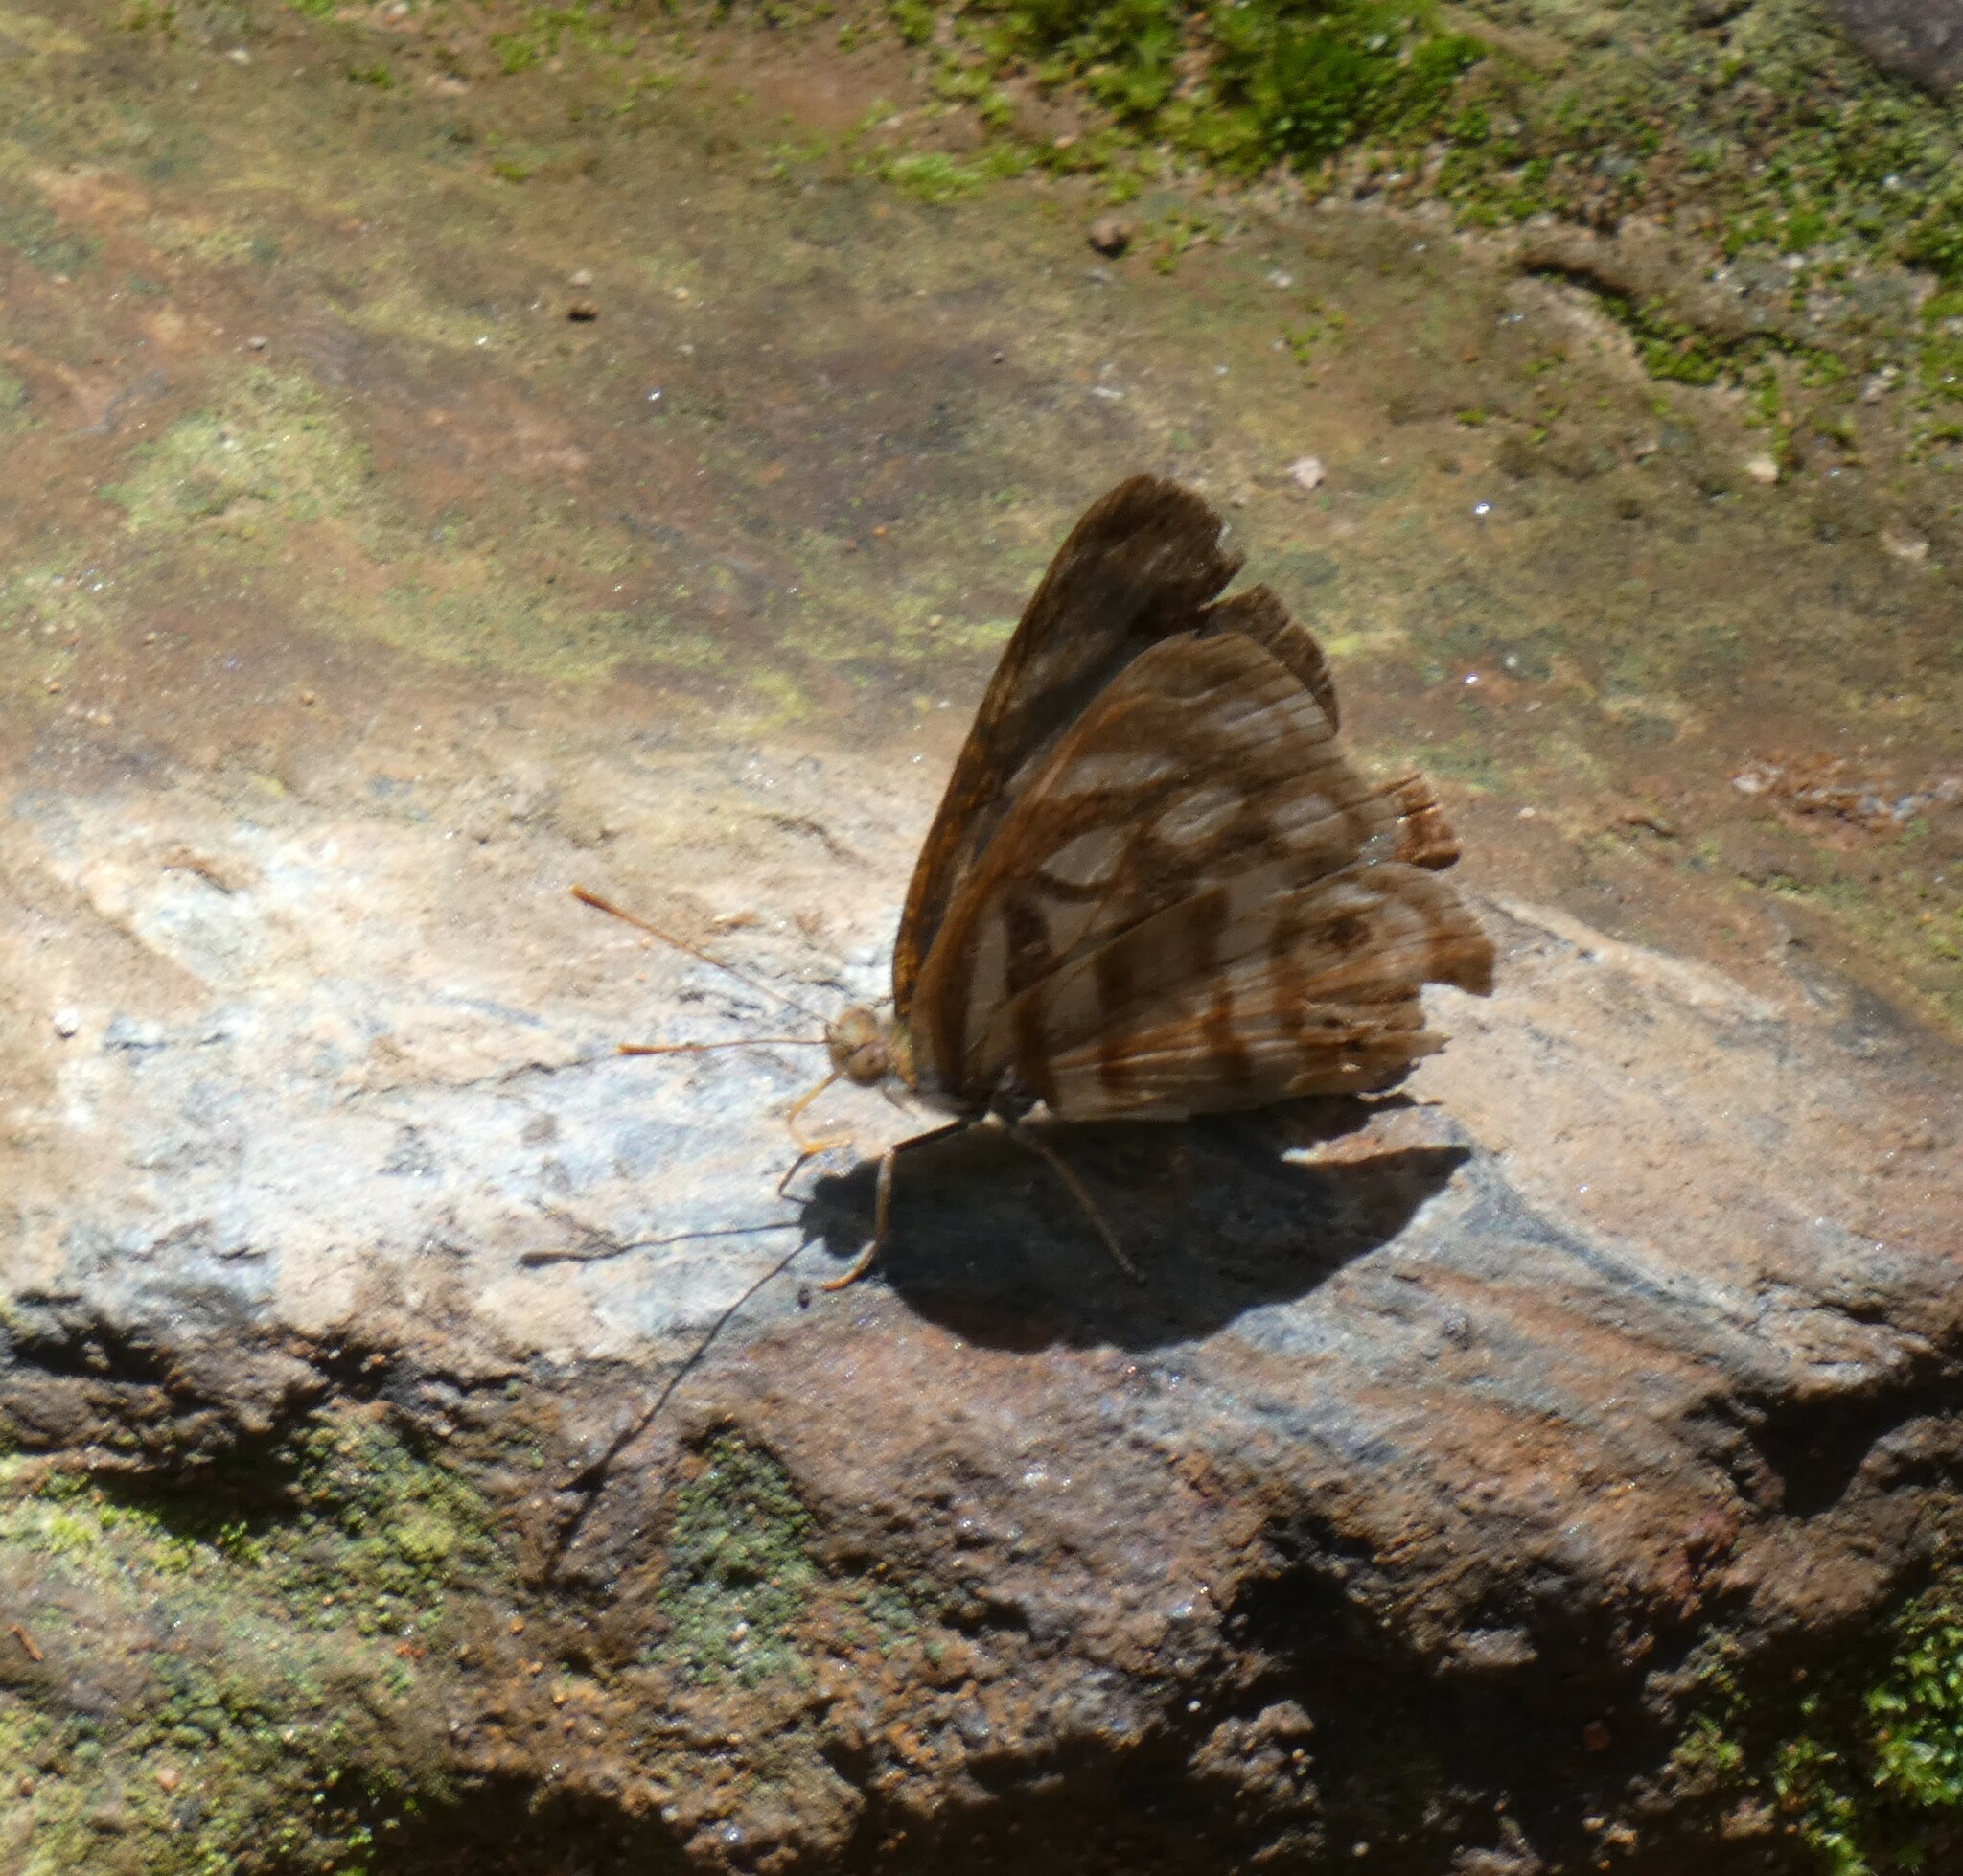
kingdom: Animalia
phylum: Arthropoda
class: Insecta
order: Lepidoptera
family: Nymphalidae
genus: Dynamine
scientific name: Dynamine mylitta
